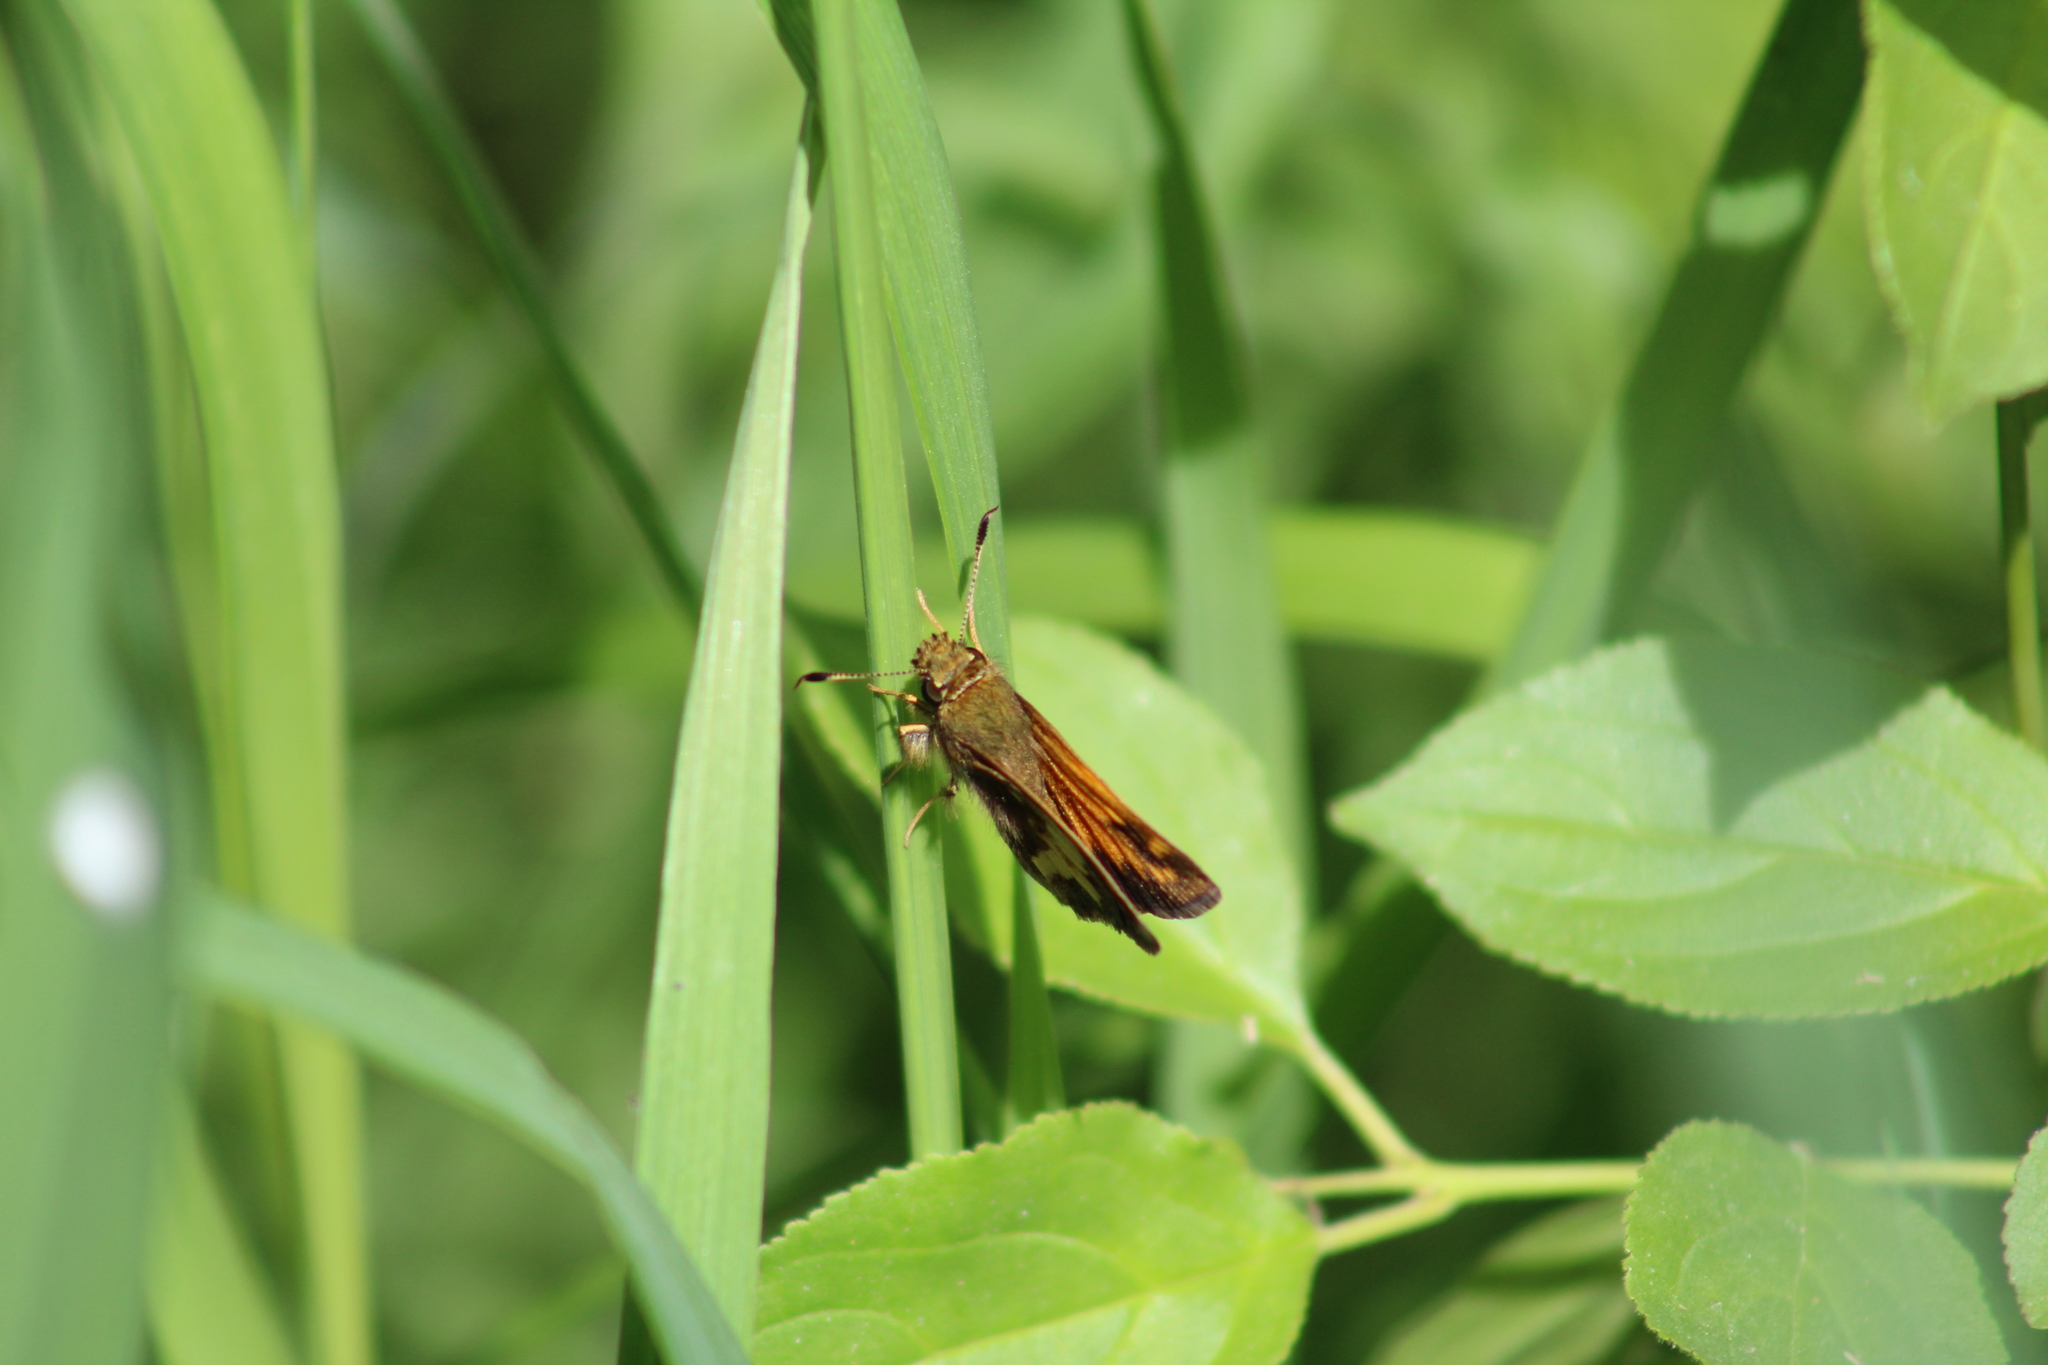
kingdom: Animalia
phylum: Arthropoda
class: Insecta
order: Lepidoptera
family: Hesperiidae
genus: Lon
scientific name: Lon hobomok
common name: Hobomok skipper
